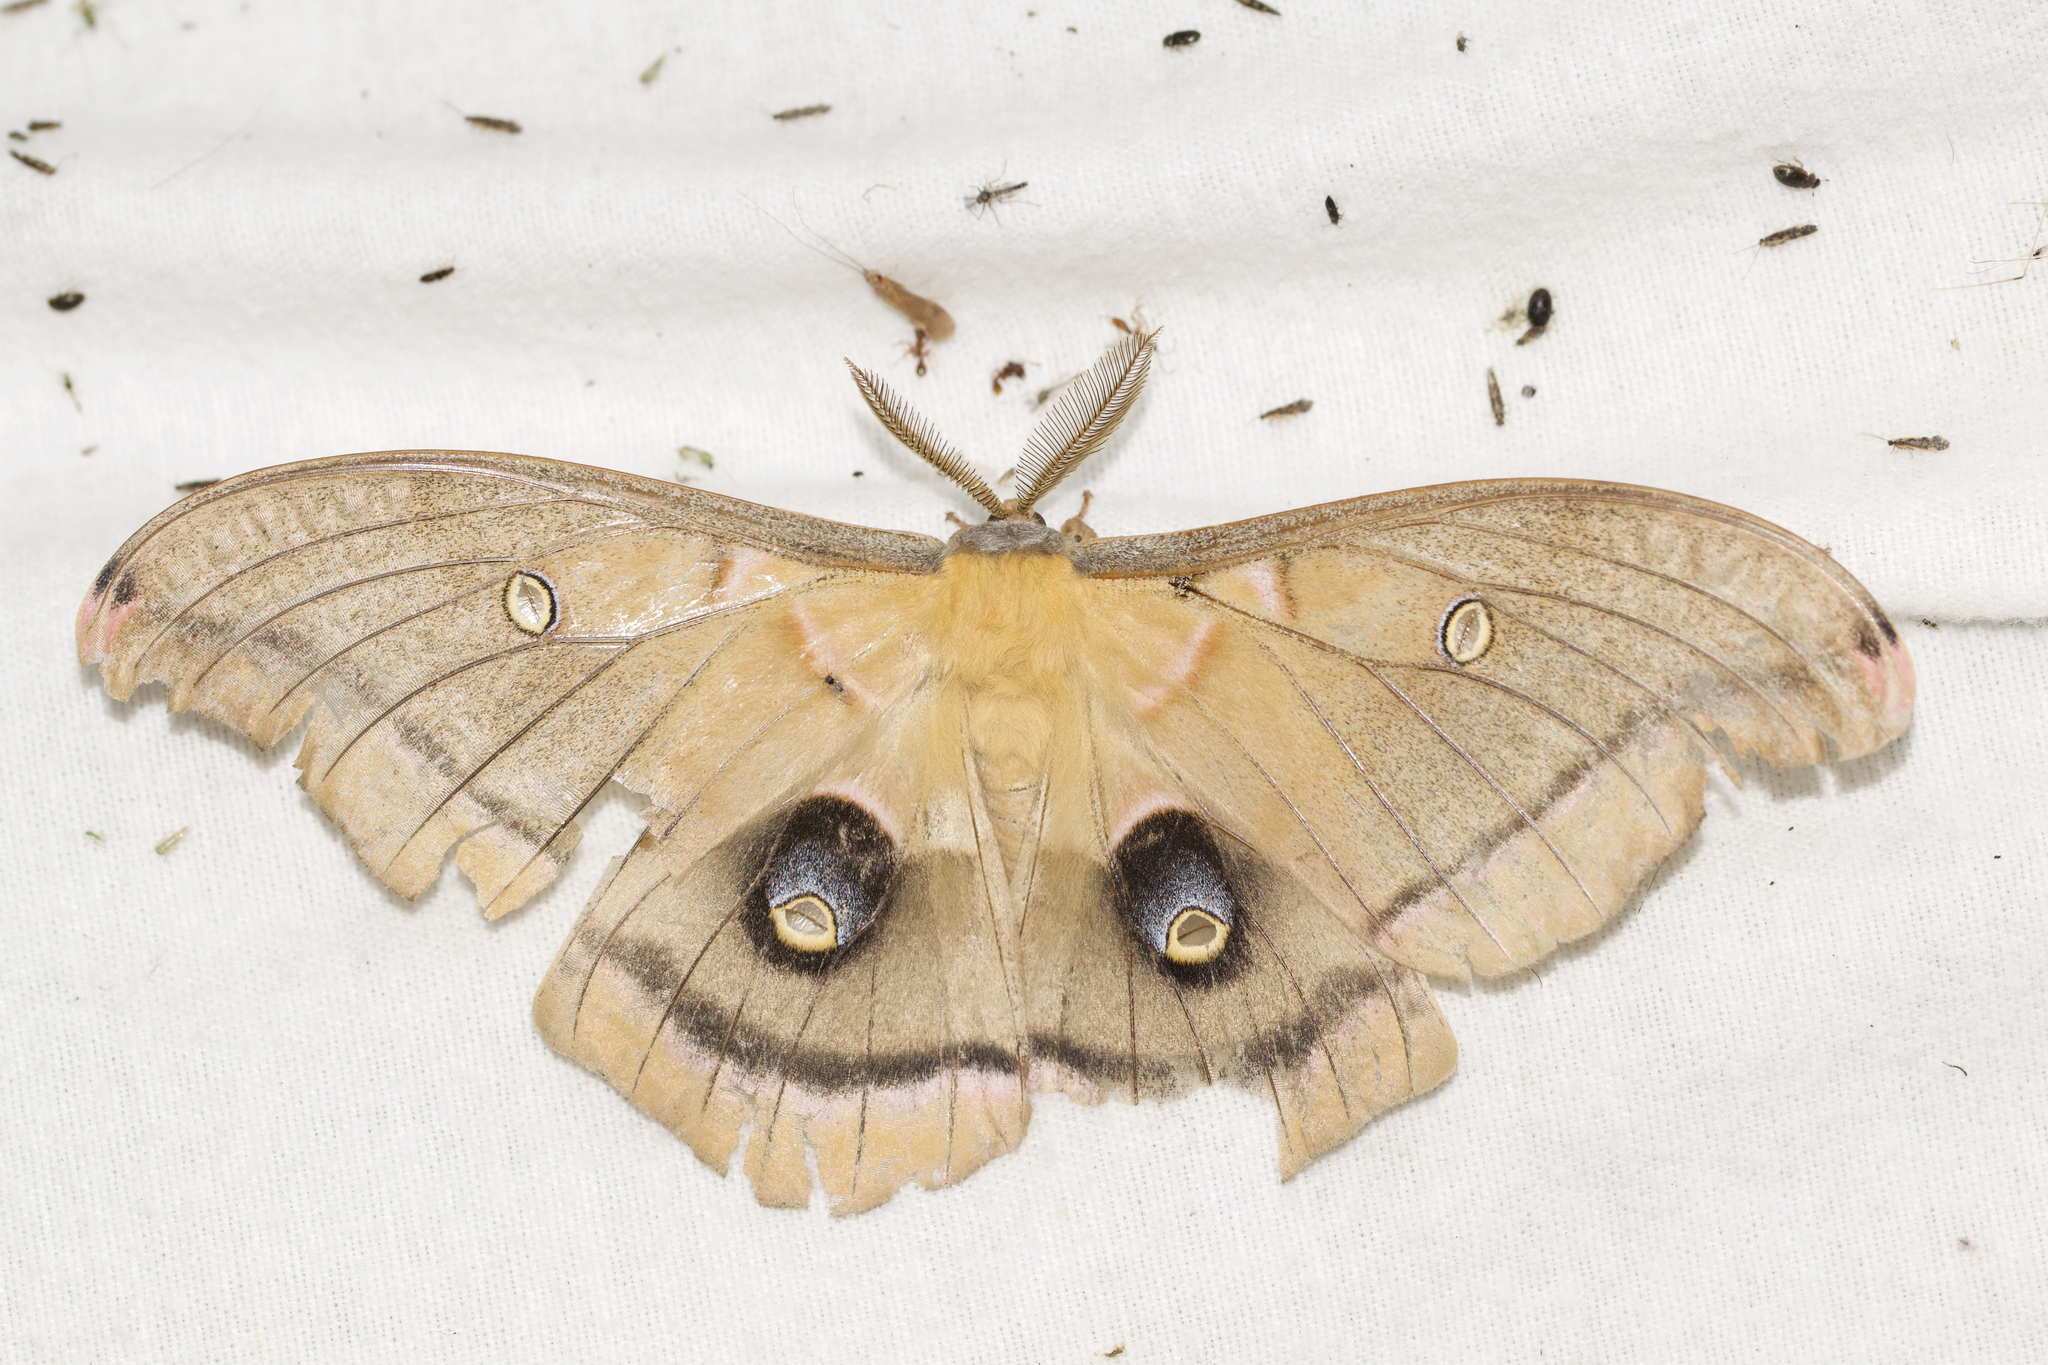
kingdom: Animalia
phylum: Arthropoda
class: Insecta
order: Lepidoptera
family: Saturniidae
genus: Antheraea
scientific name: Antheraea polyphemus
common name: Polyphemus moth
